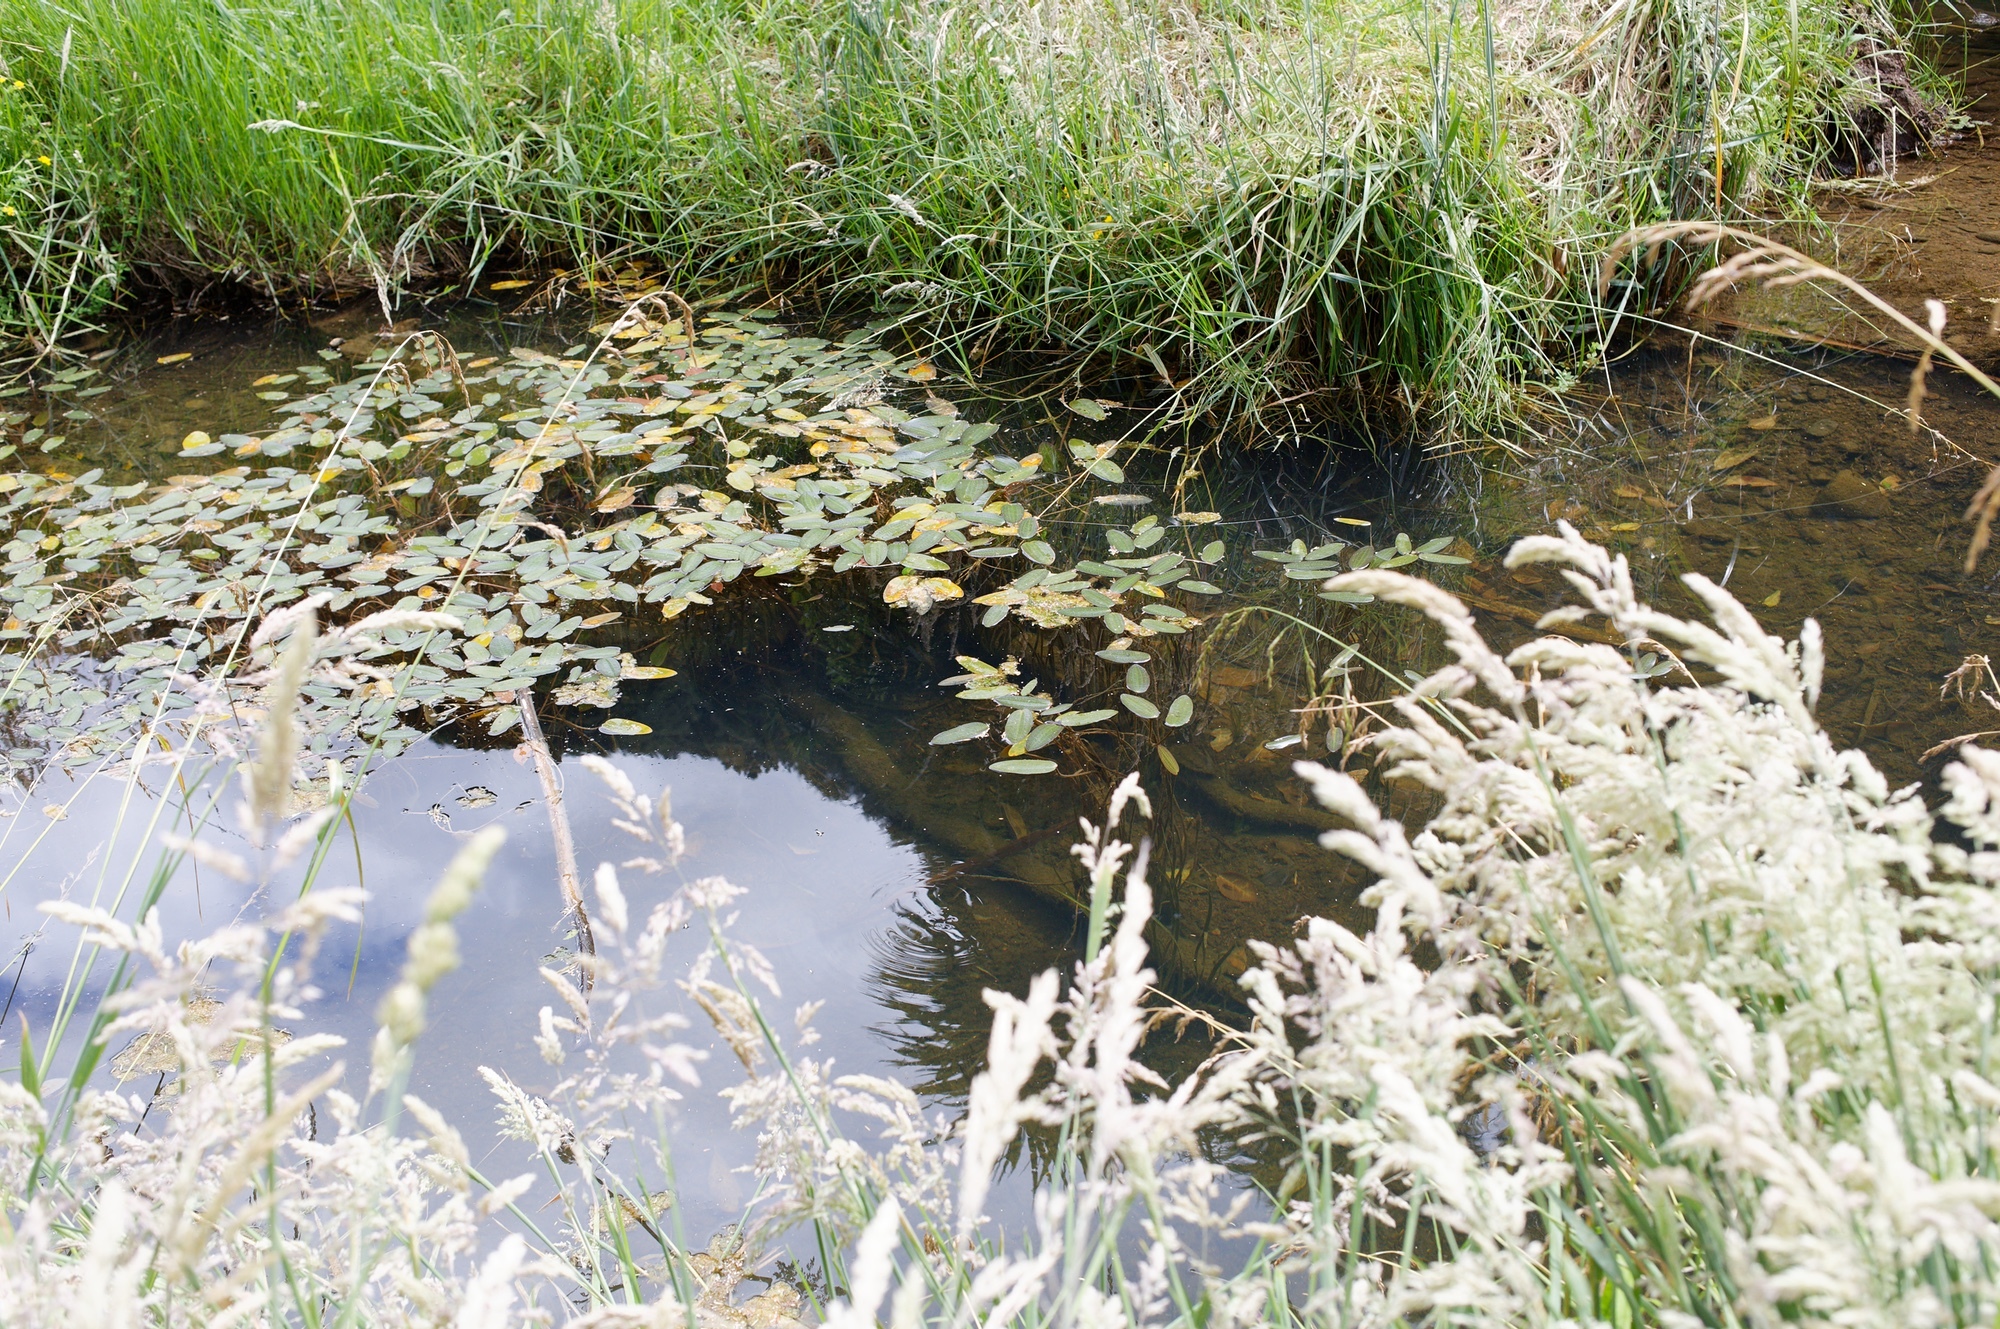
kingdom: Plantae
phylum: Tracheophyta
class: Liliopsida
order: Alismatales
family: Hydrocharitaceae
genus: Ottelia
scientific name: Ottelia ovalifolia
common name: Swamp-lily
